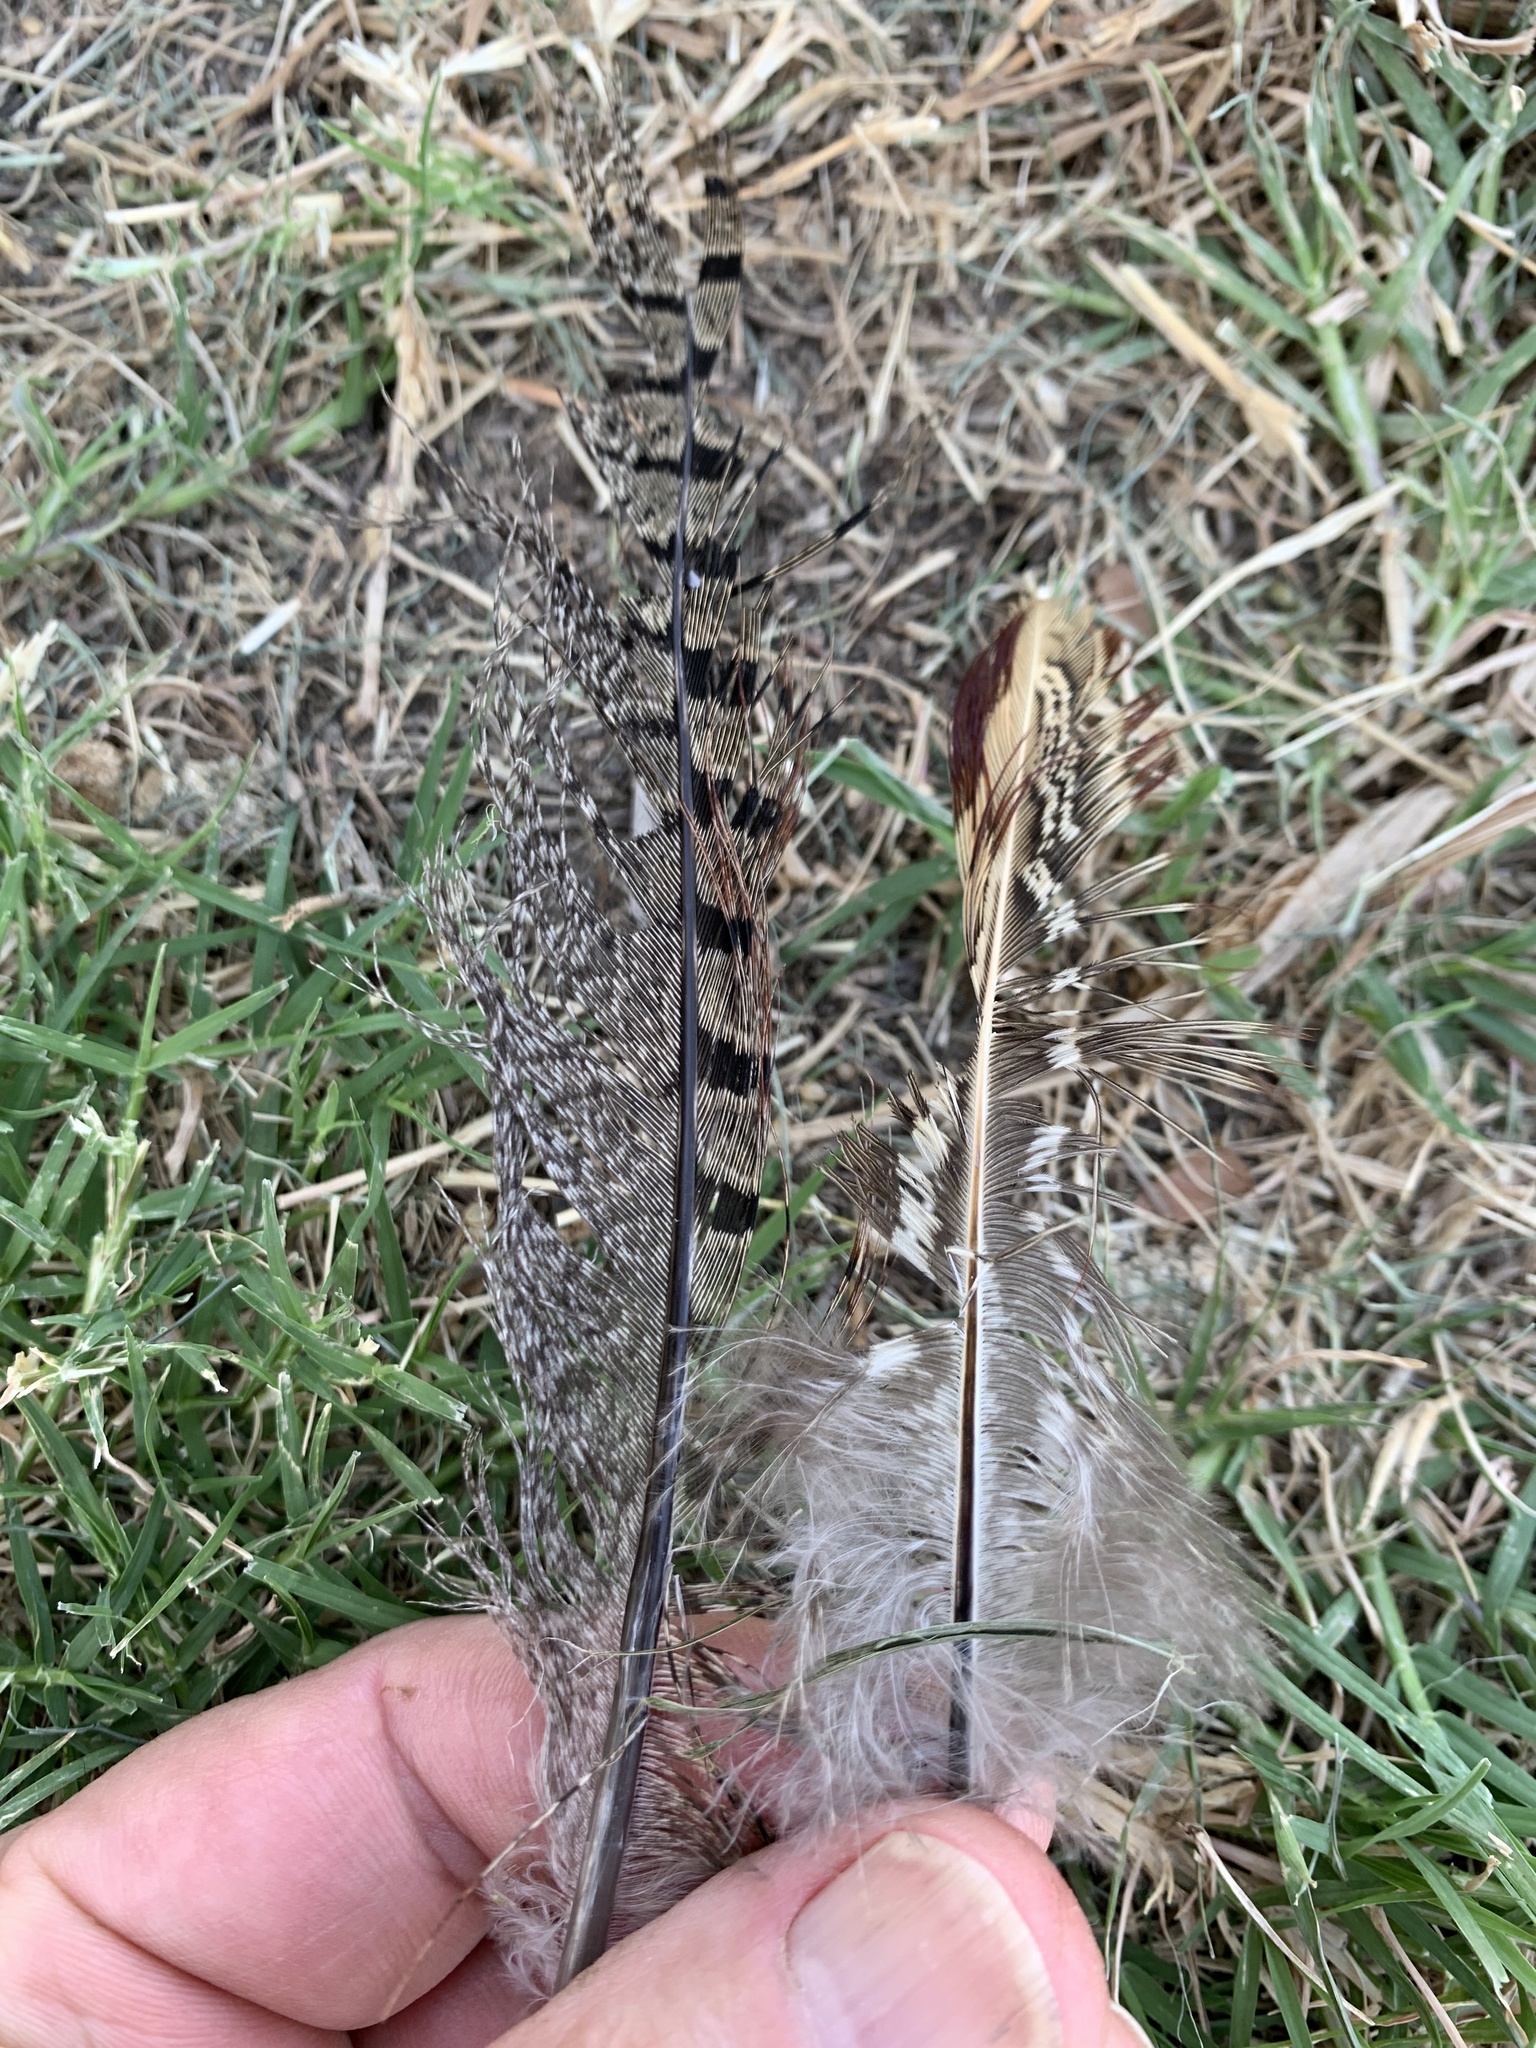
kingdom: Animalia
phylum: Chordata
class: Aves
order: Galliformes
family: Phasianidae
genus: Phasianus
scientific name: Phasianus colchicus
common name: Common pheasant
